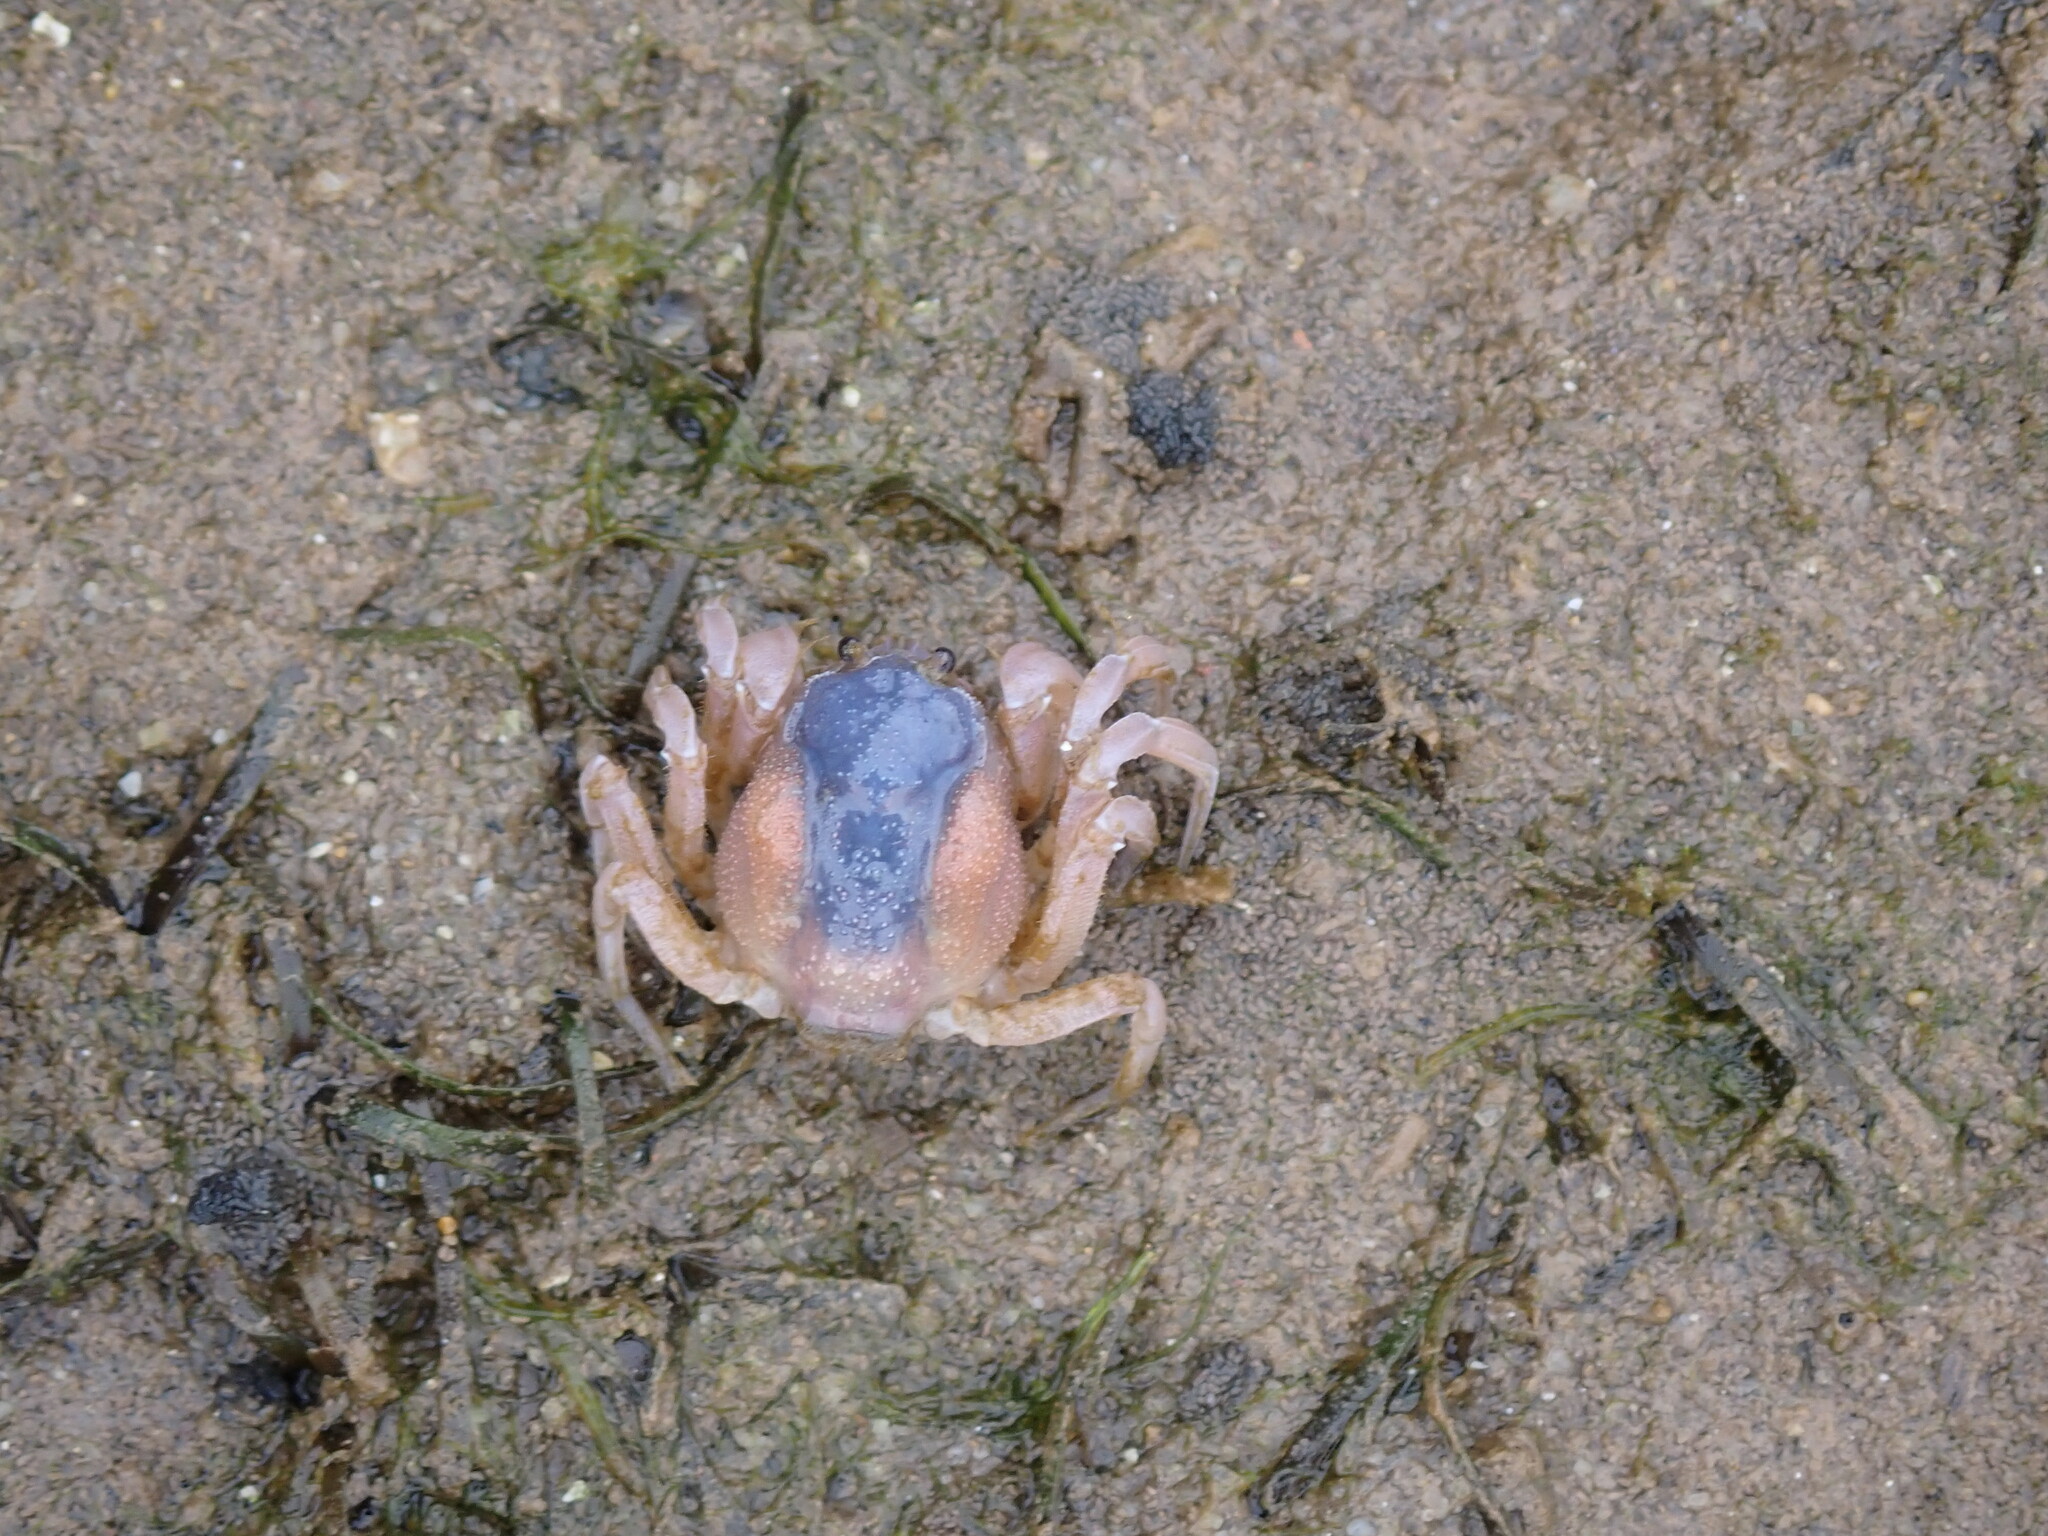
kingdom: Animalia
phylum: Arthropoda
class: Malacostraca
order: Decapoda
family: Mictyridae
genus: Mictyris
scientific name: Mictyris platycheles
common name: Dark blue soldier crab
